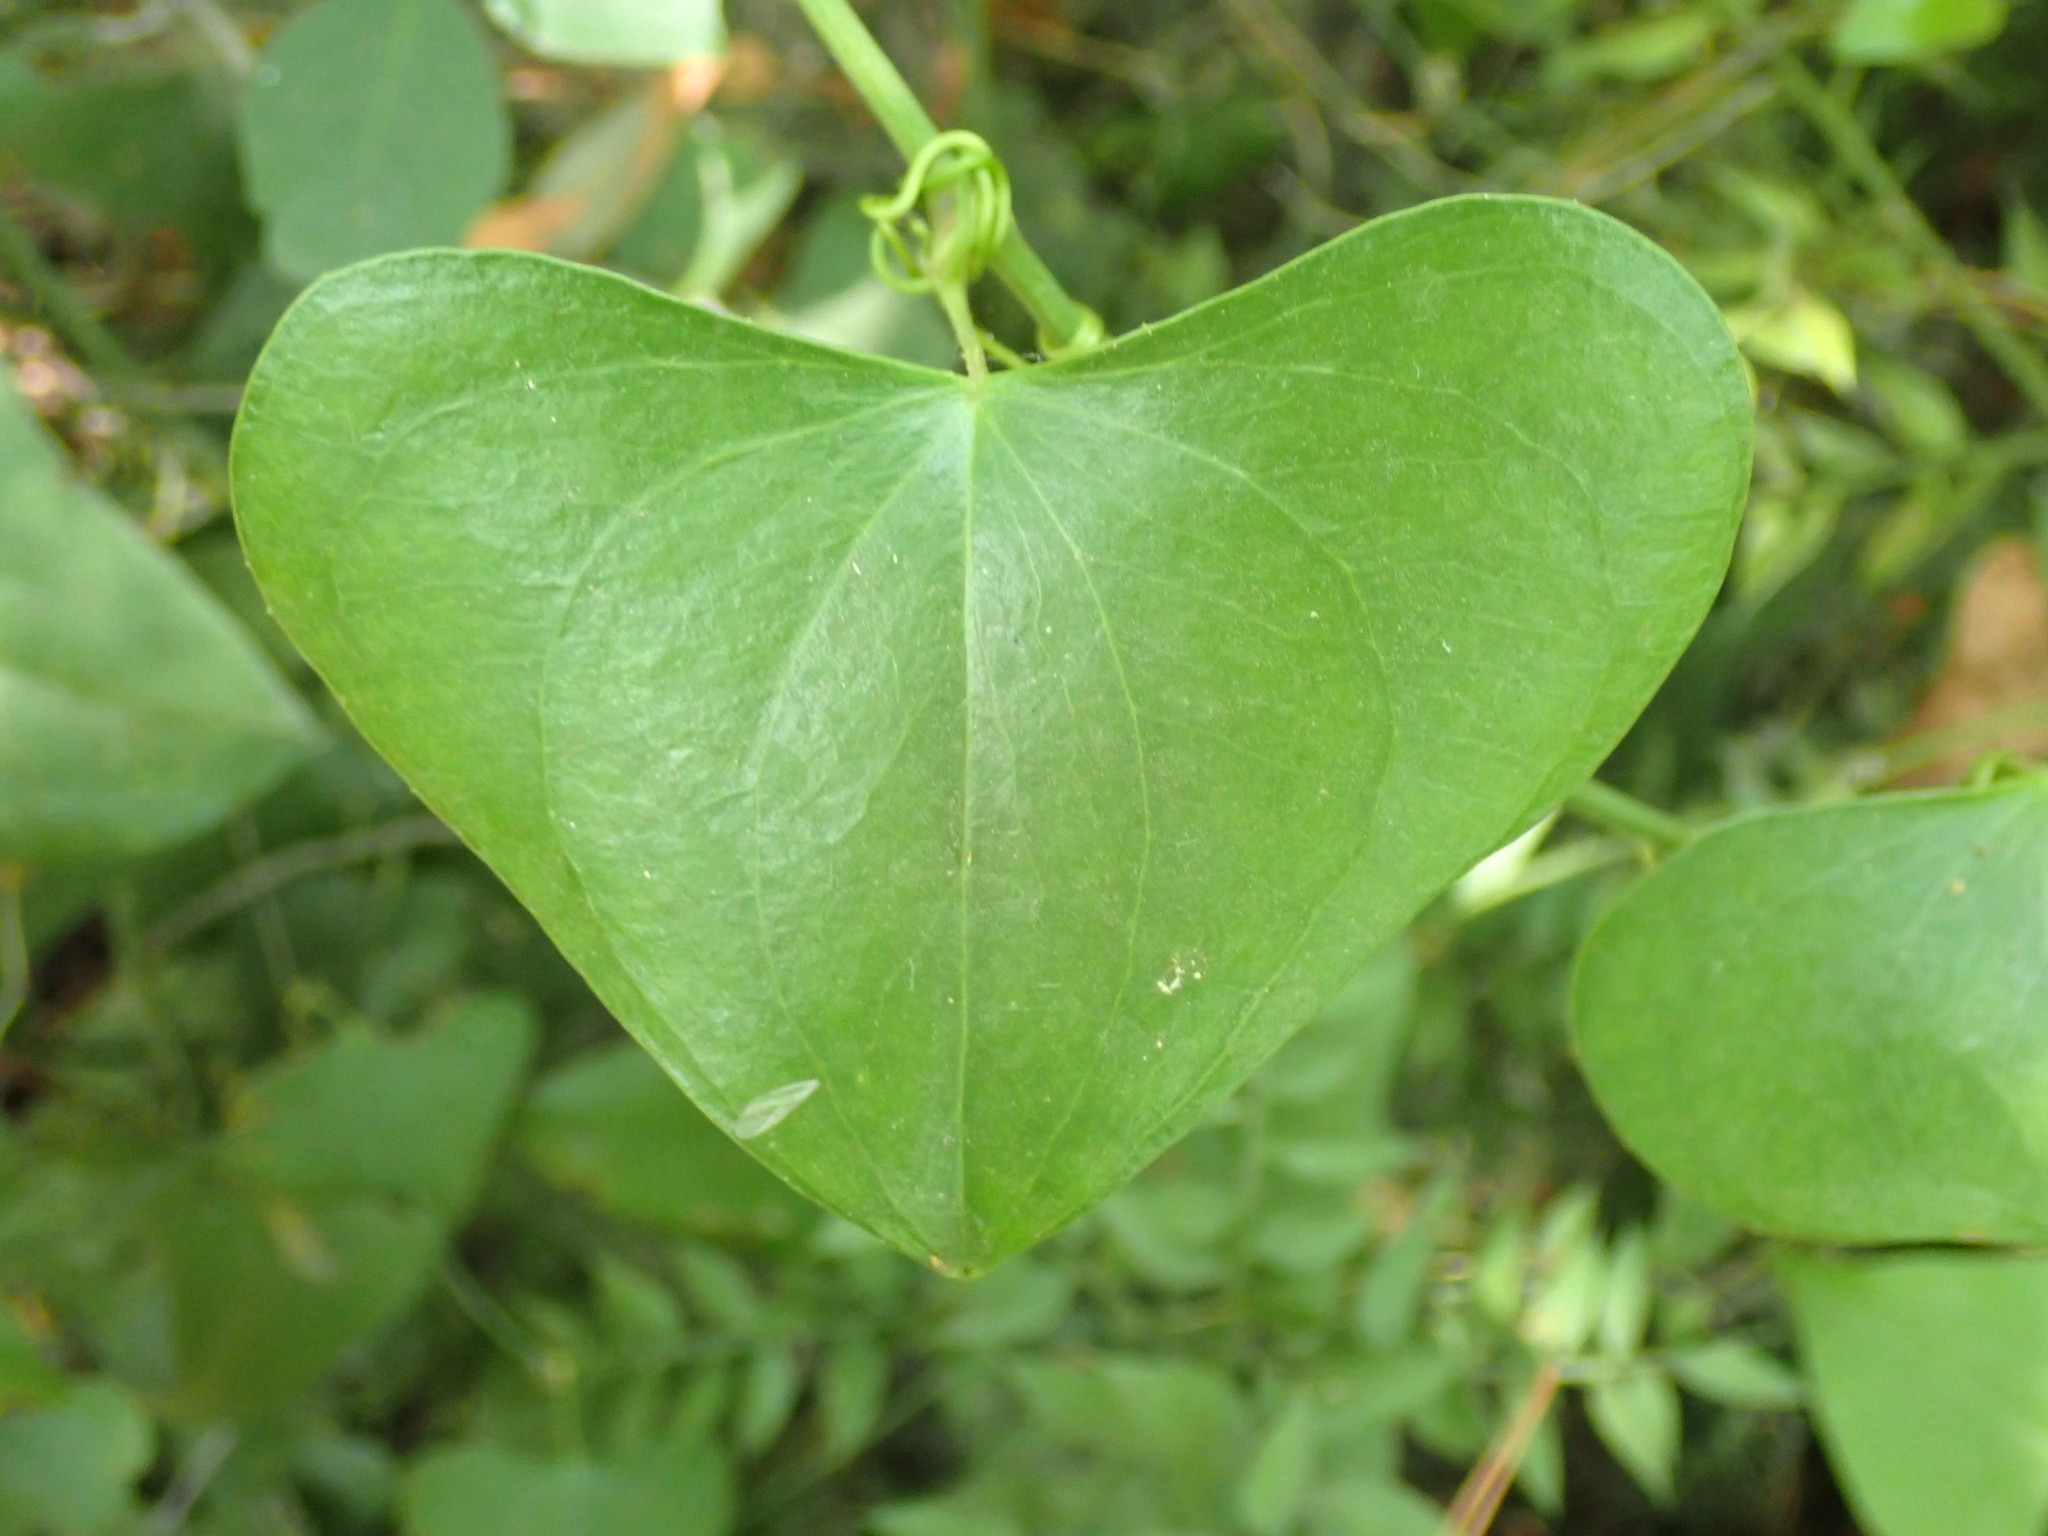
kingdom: Plantae
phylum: Tracheophyta
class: Liliopsida
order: Liliales
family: Smilacaceae
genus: Smilax
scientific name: Smilax aspera
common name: Common smilax
